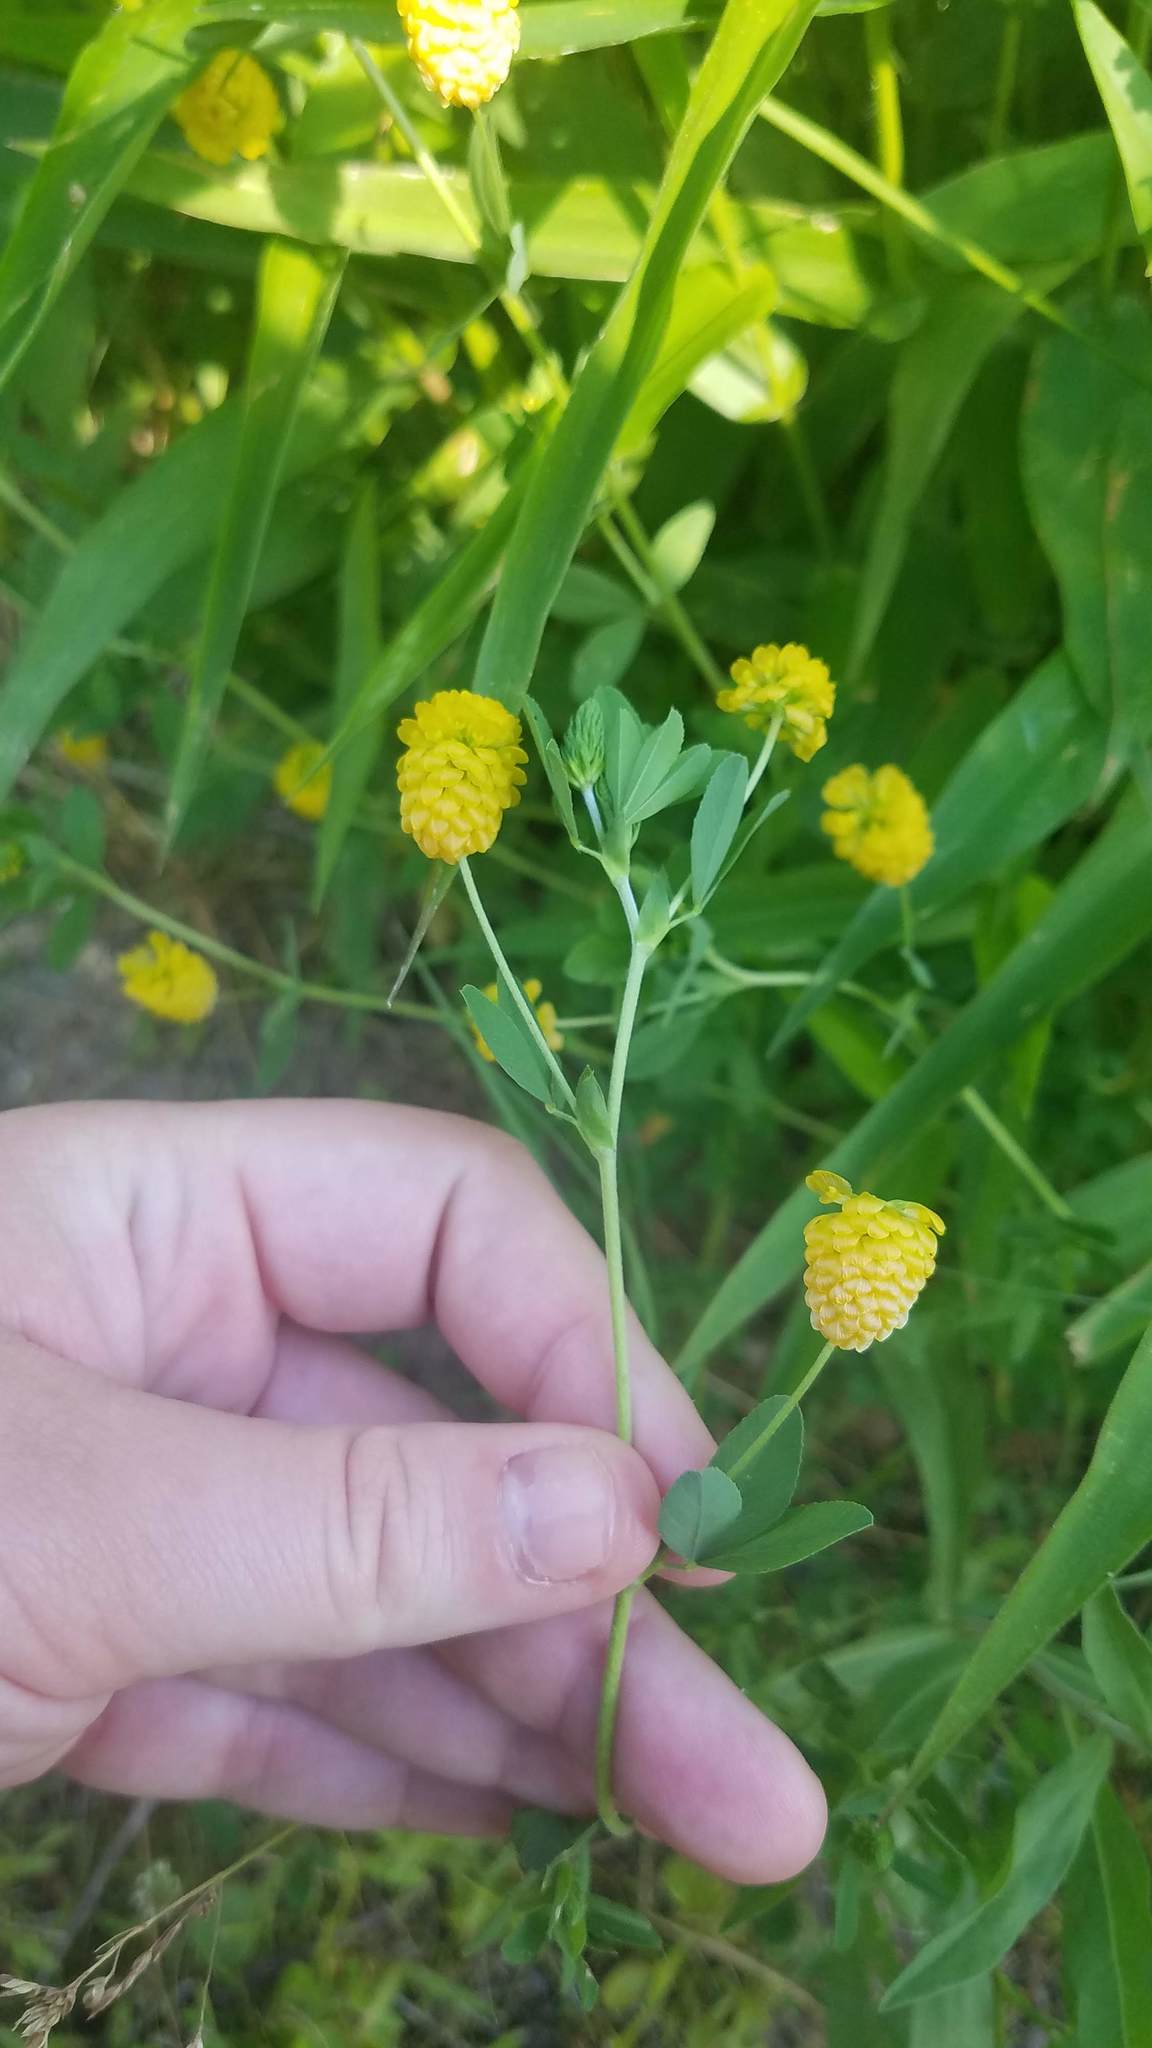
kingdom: Plantae
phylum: Tracheophyta
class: Magnoliopsida
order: Fabales
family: Fabaceae
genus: Trifolium
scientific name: Trifolium aureum
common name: Golden clover
